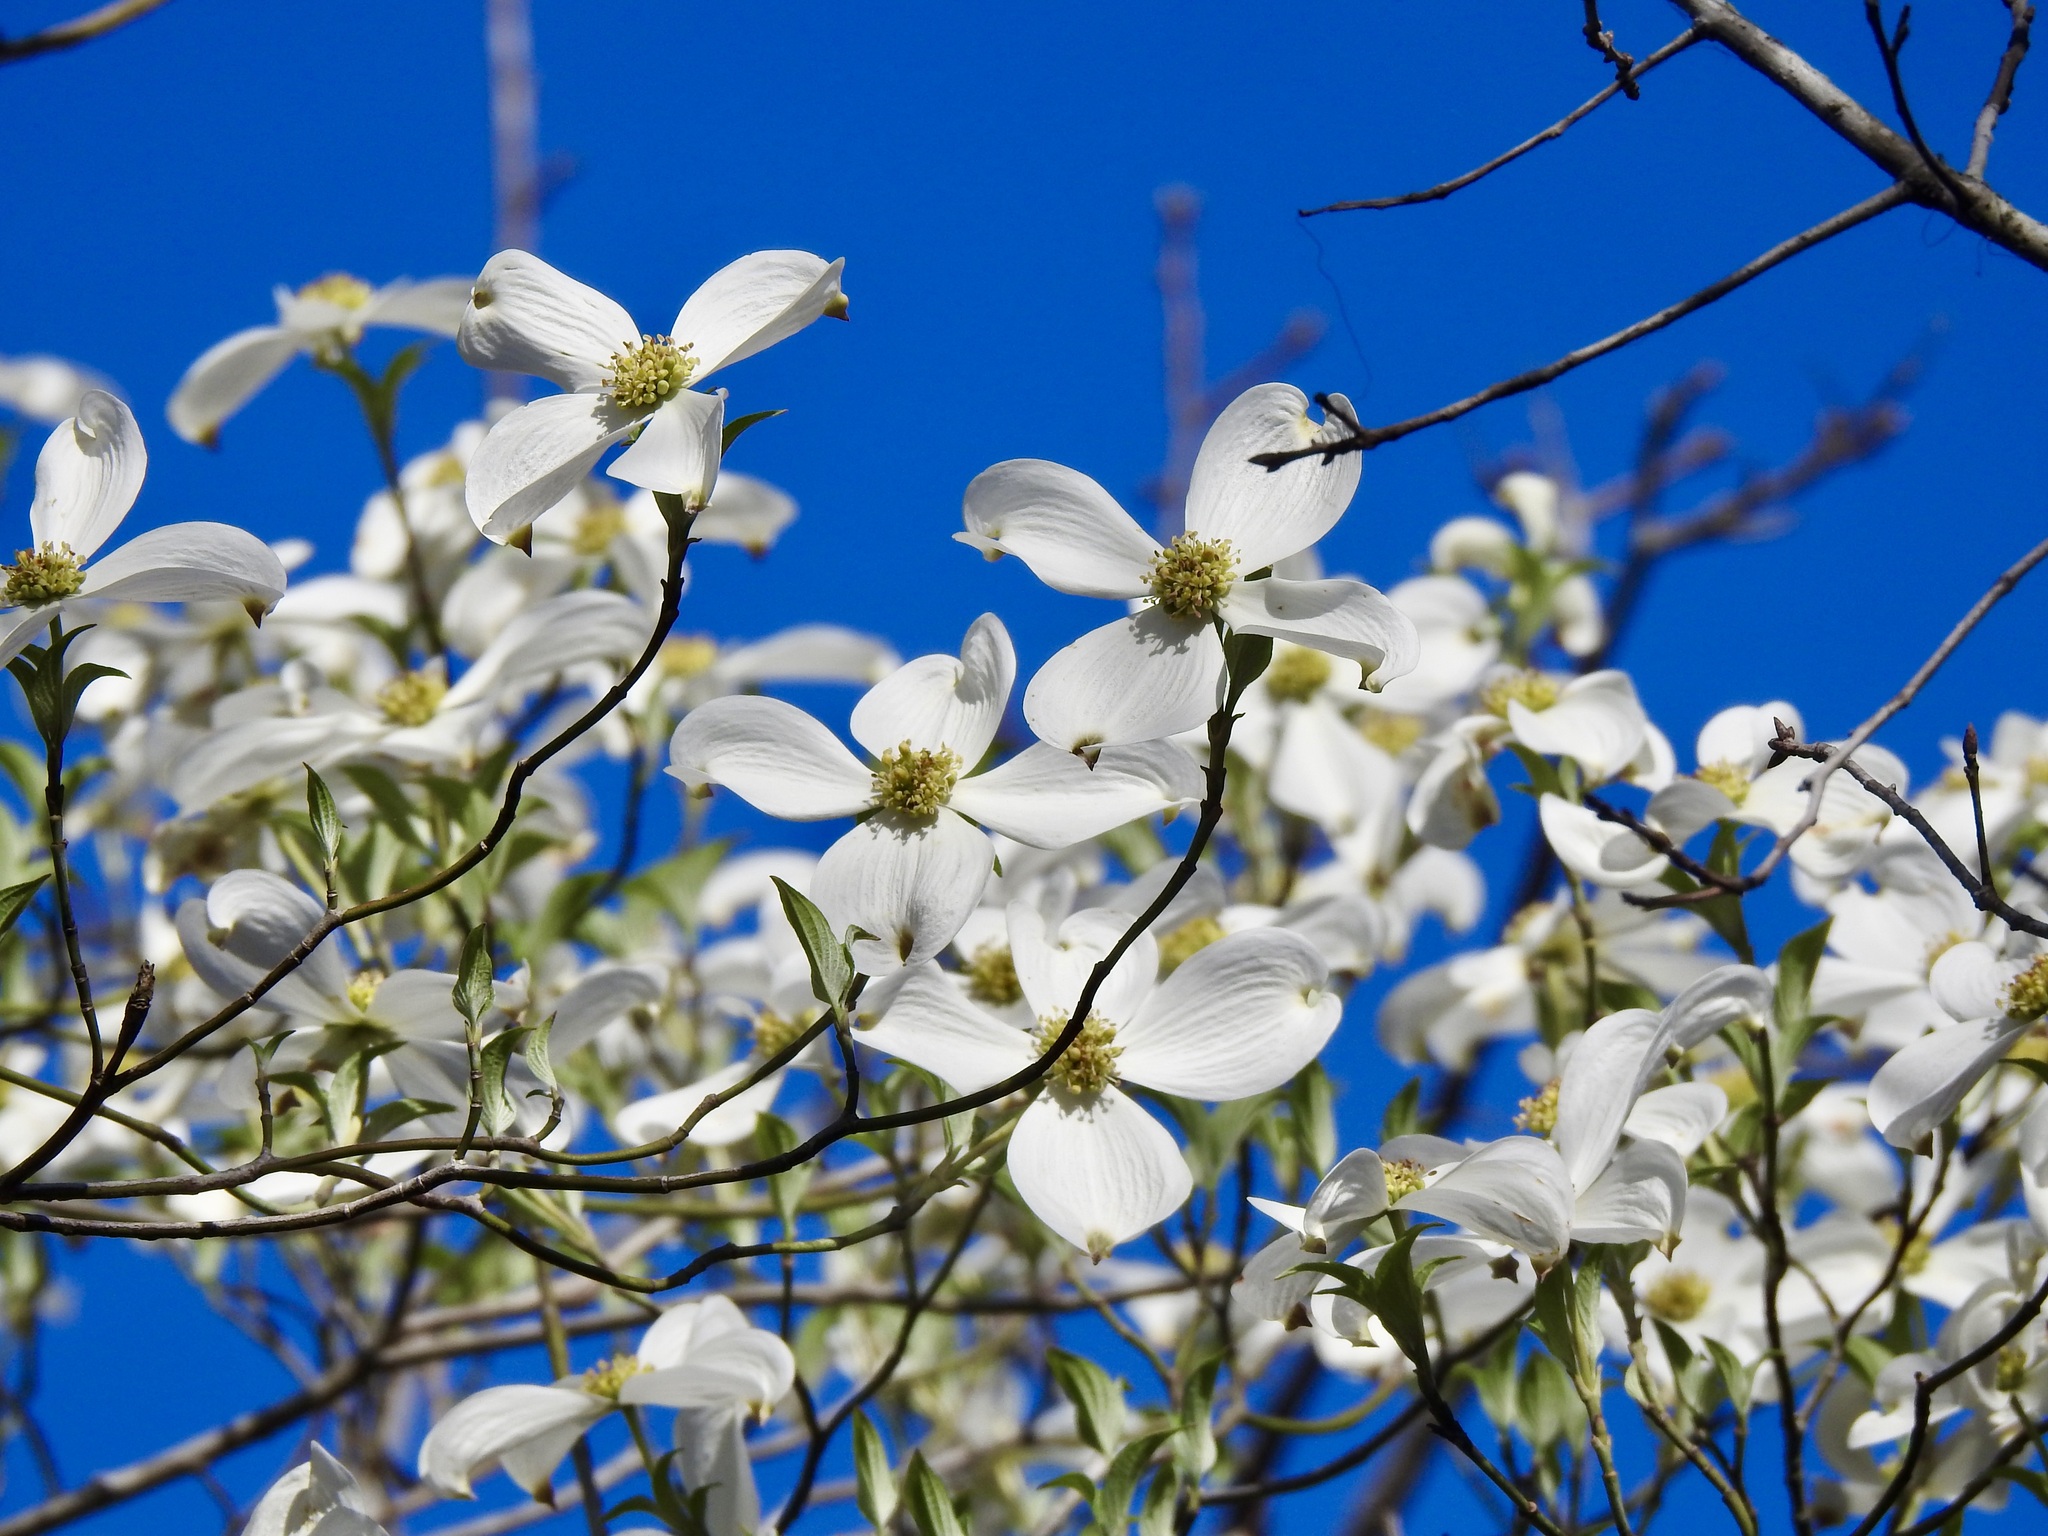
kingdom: Plantae
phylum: Tracheophyta
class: Magnoliopsida
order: Cornales
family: Cornaceae
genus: Cornus
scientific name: Cornus florida
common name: Flowering dogwood
